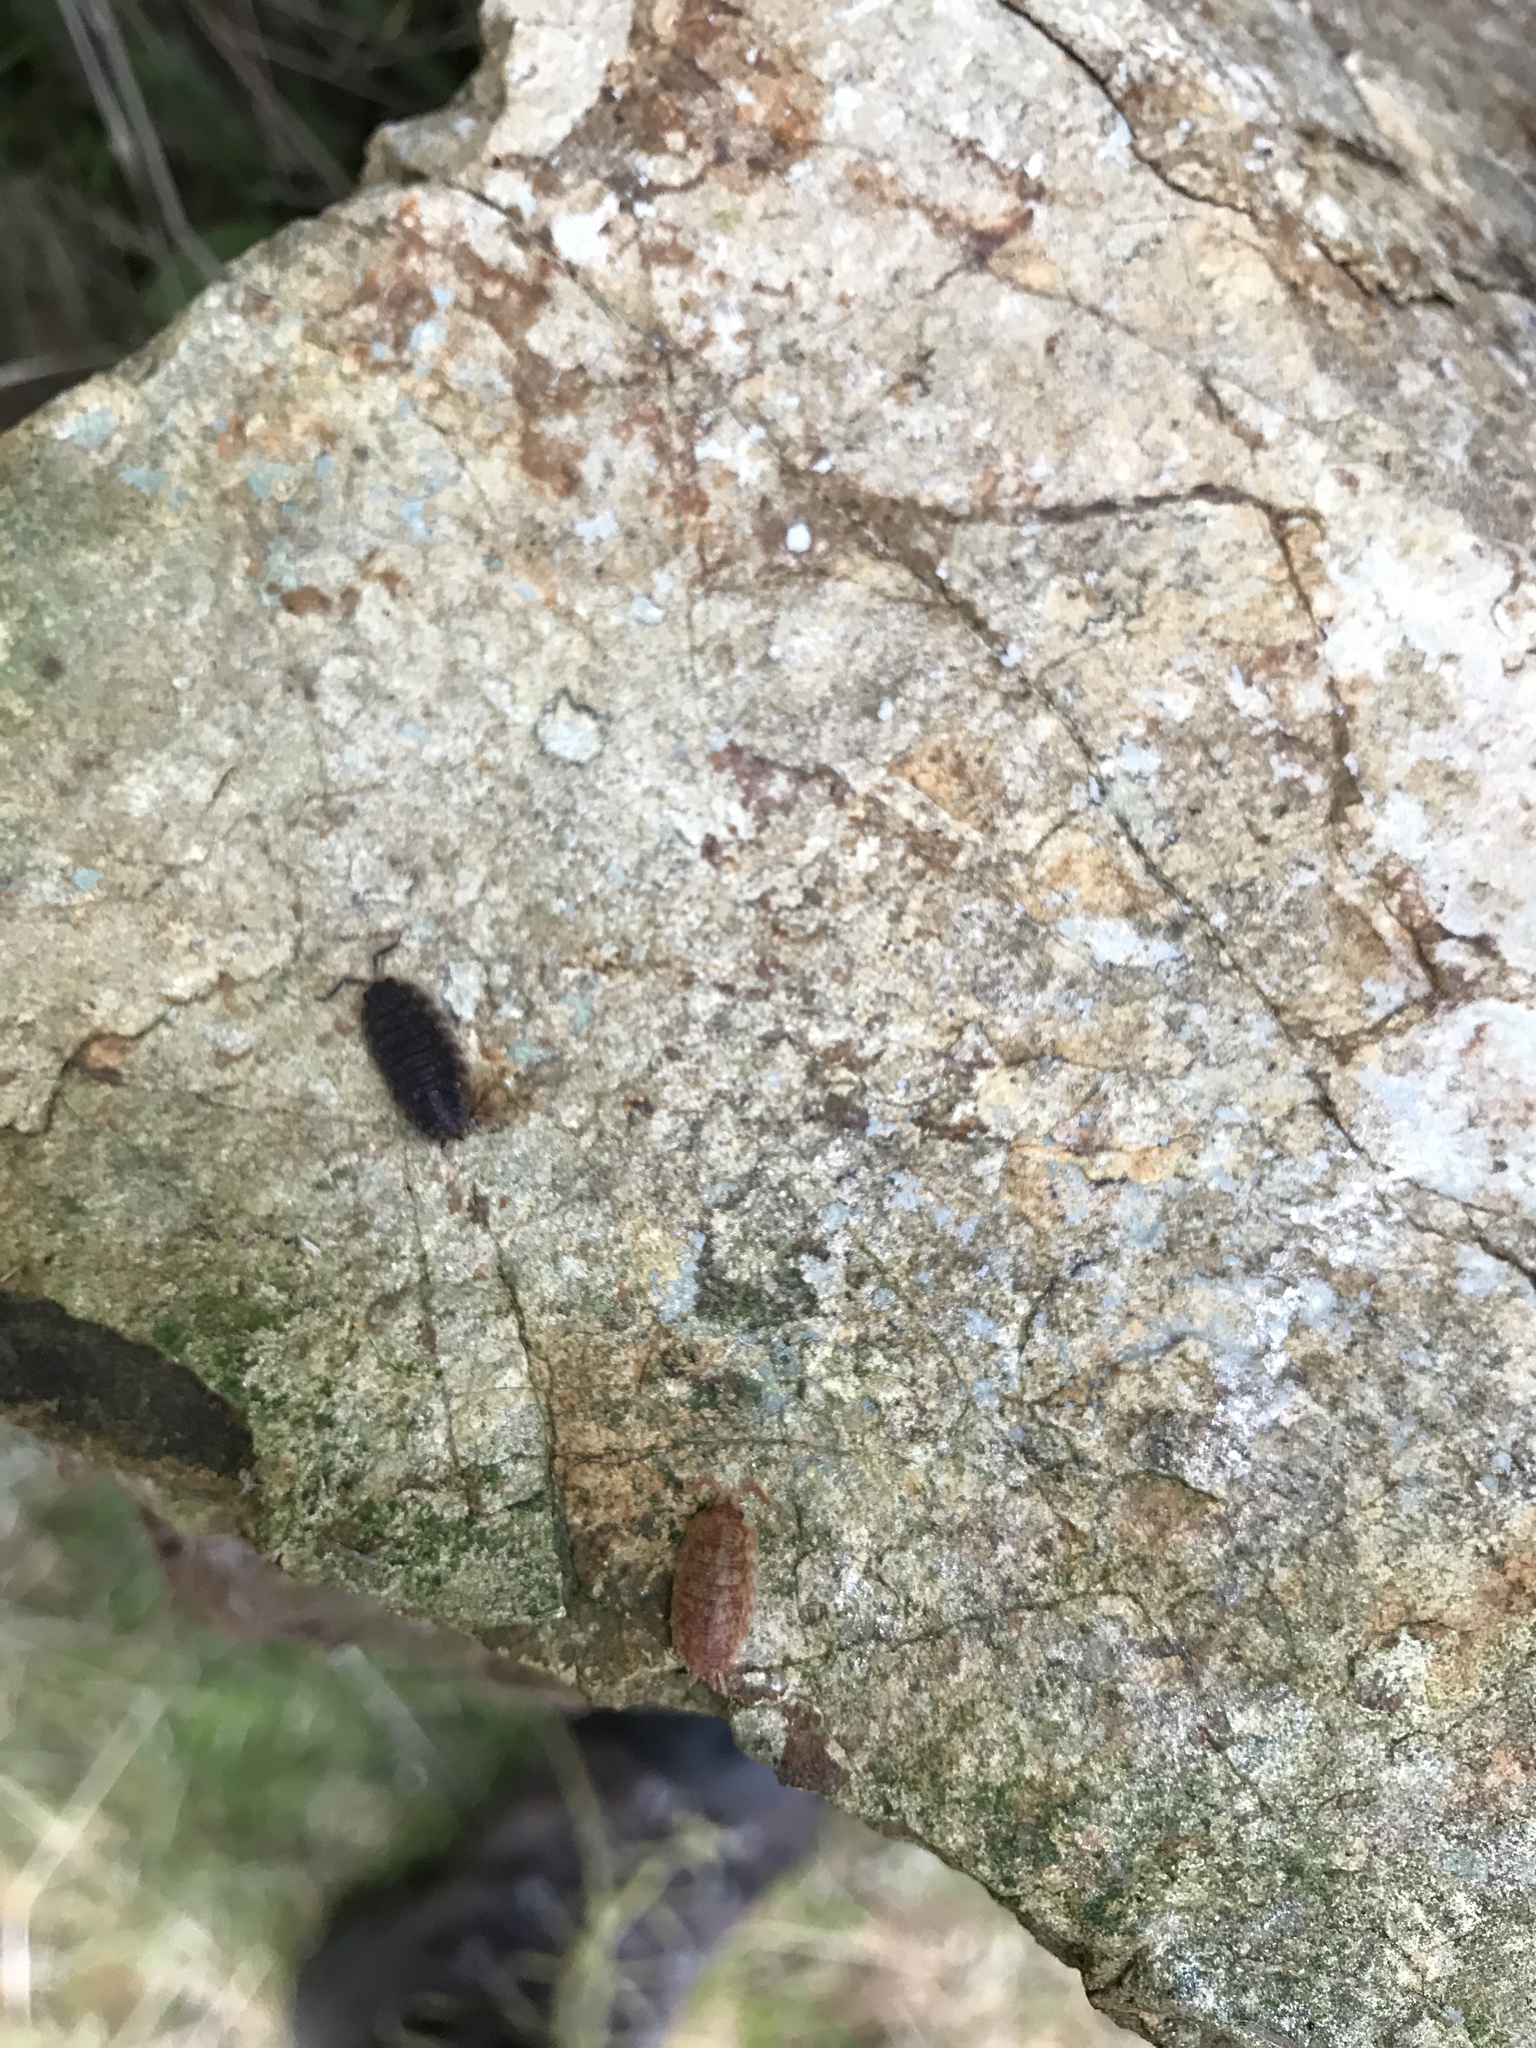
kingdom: Animalia
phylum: Arthropoda
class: Malacostraca
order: Isopoda
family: Porcellionidae
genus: Porcellio
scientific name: Porcellio scaber
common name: Common rough woodlouse
